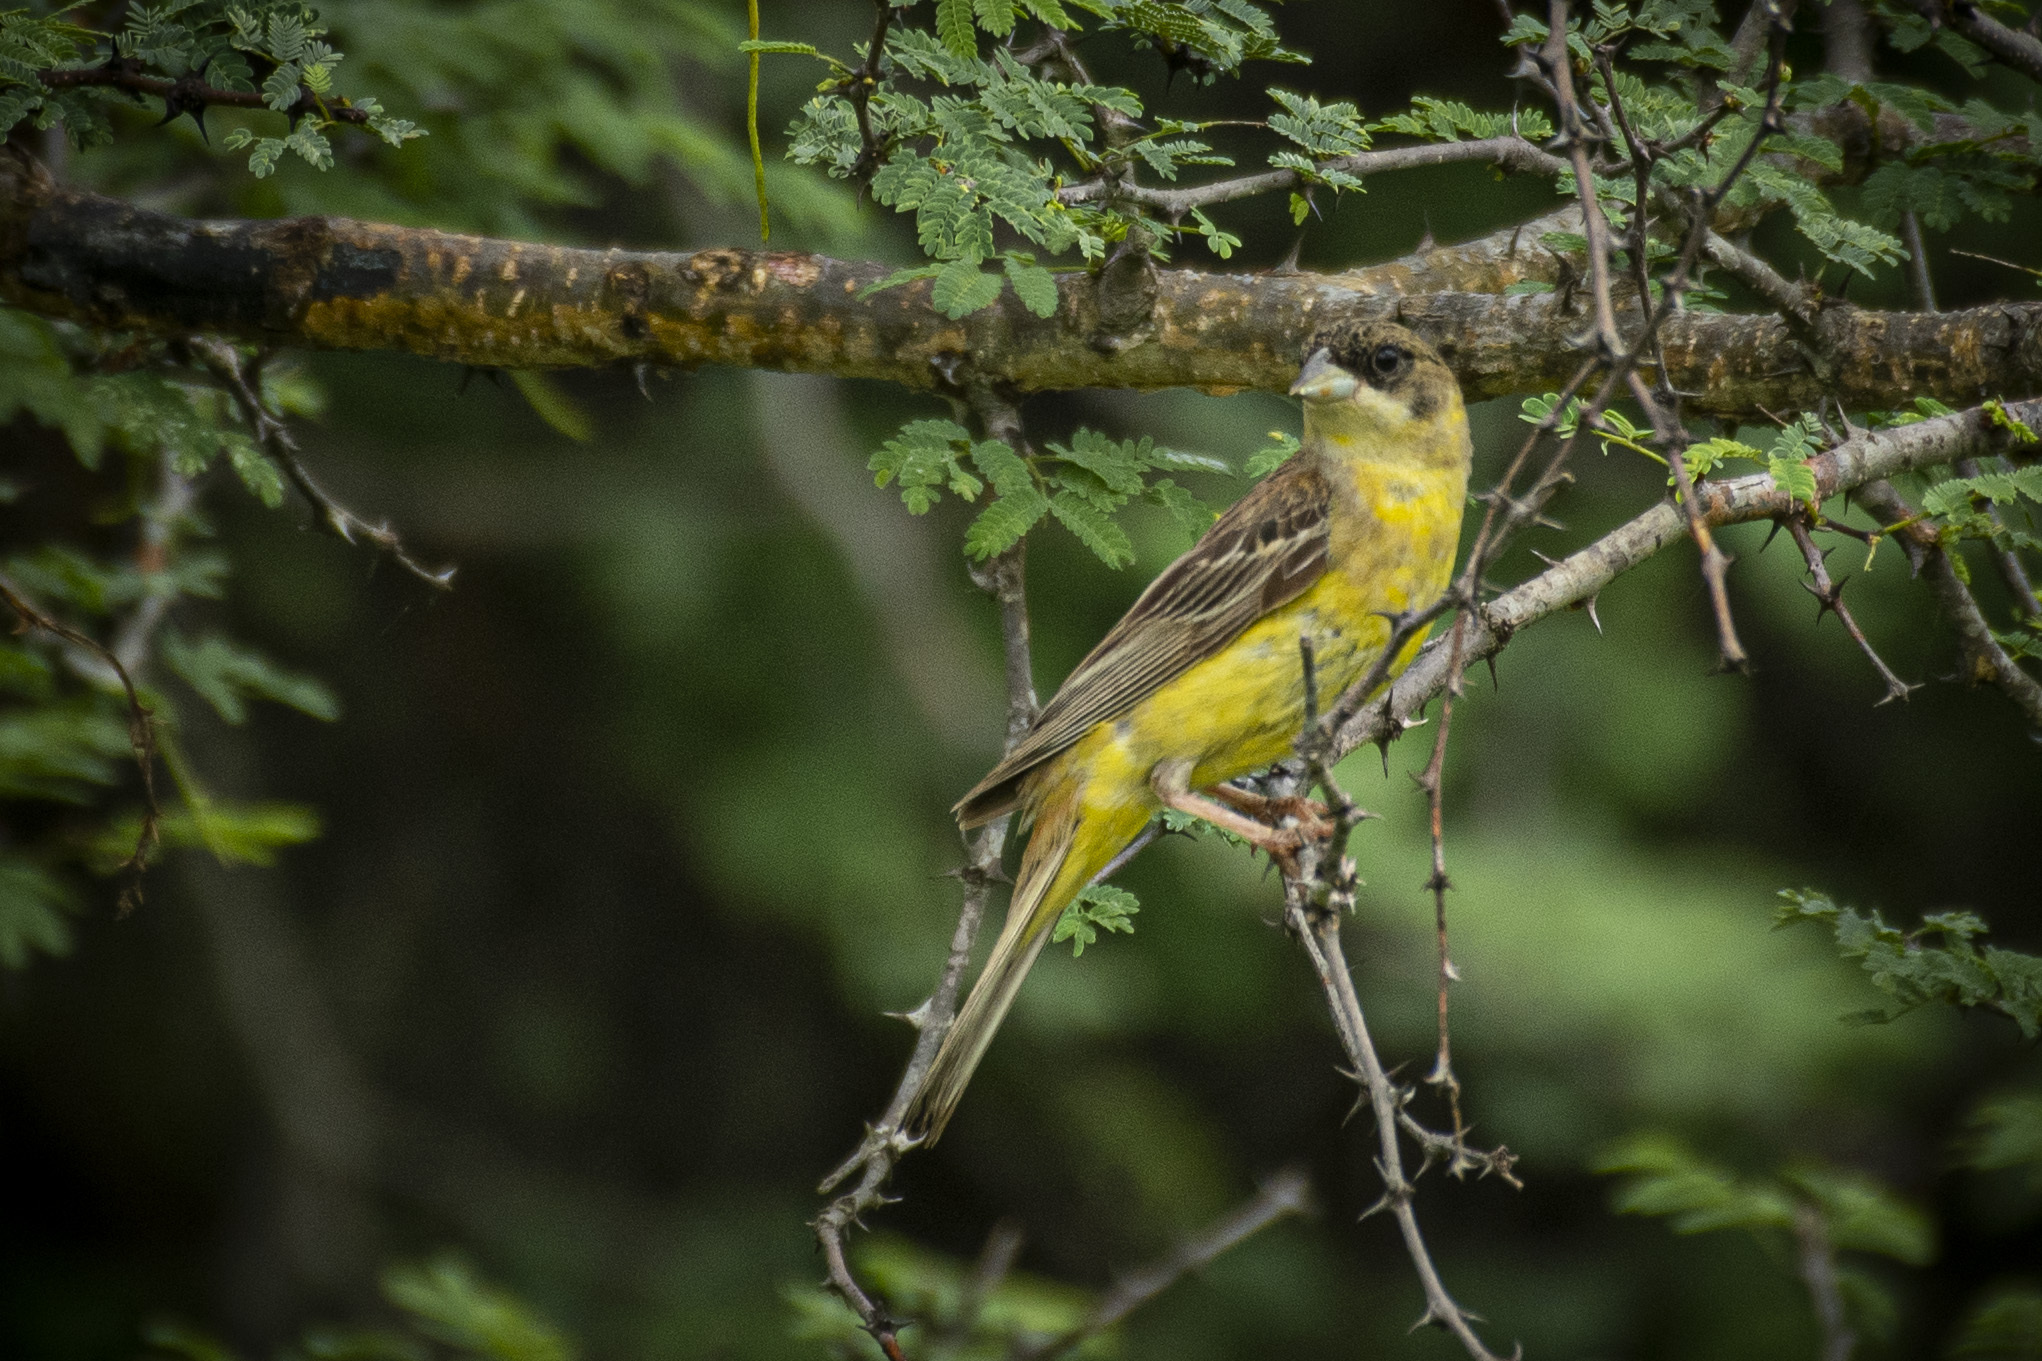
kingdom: Animalia
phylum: Chordata
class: Aves
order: Passeriformes
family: Emberizidae
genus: Emberiza
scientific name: Emberiza melanocephala
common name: Black-headed bunting
